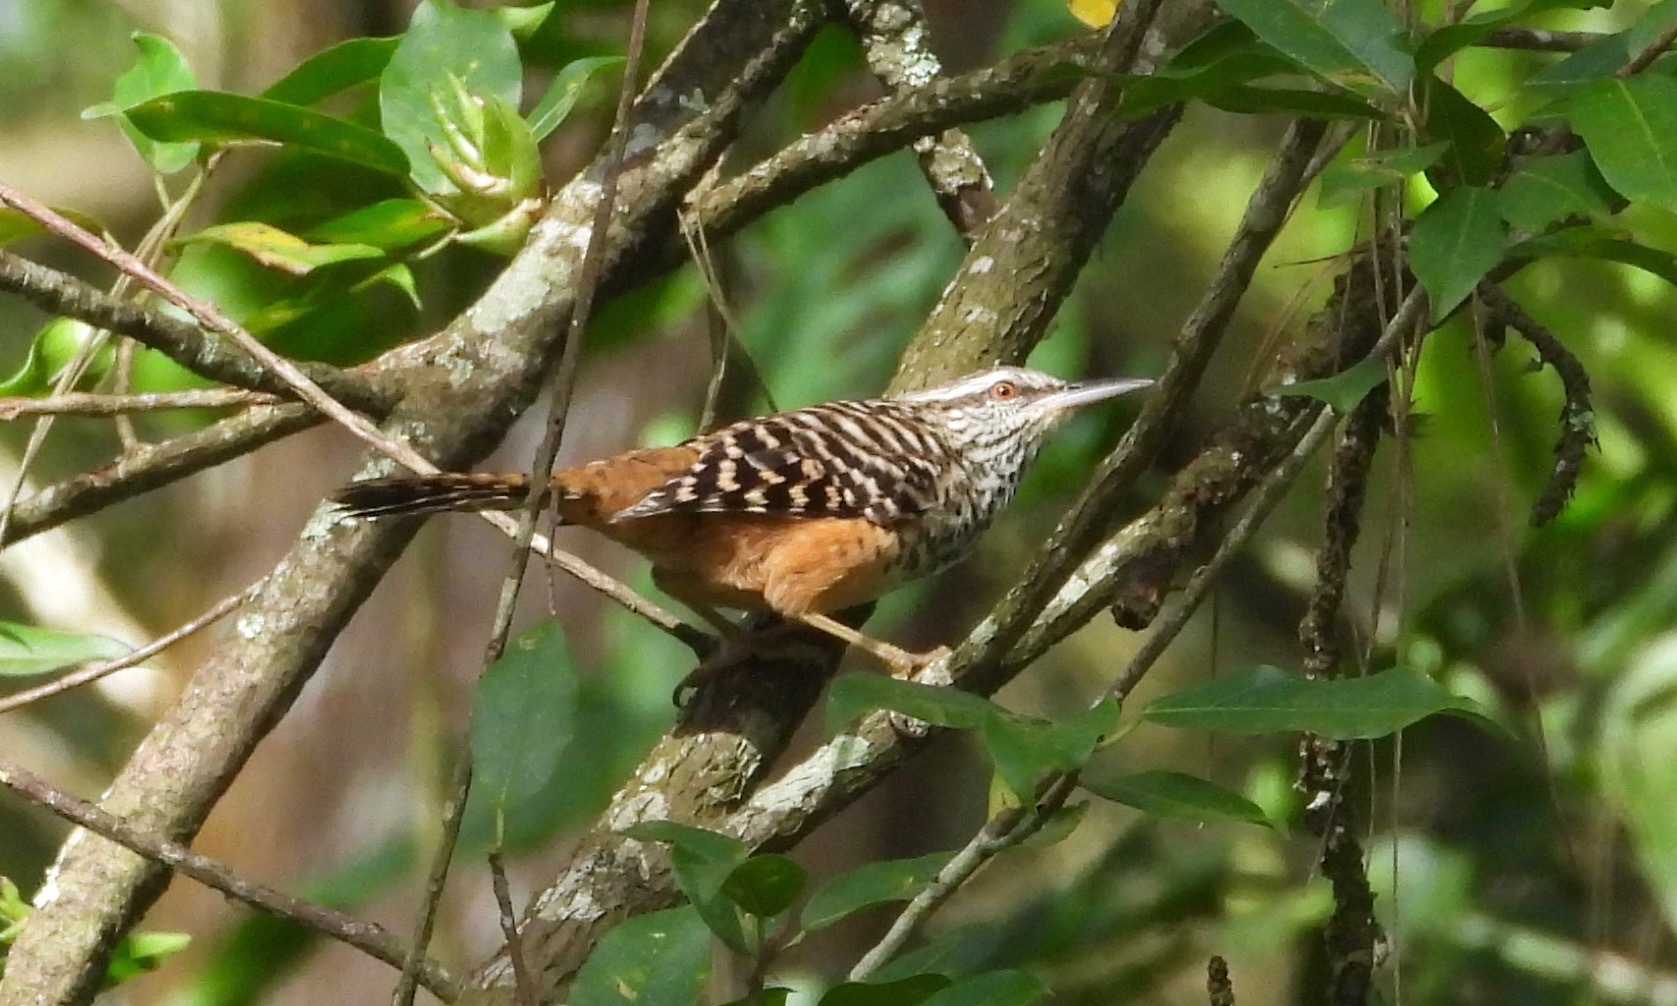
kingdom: Animalia
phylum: Chordata
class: Aves
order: Passeriformes
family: Troglodytidae
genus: Campylorhynchus
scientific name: Campylorhynchus zonatus
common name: Band-backed wren
